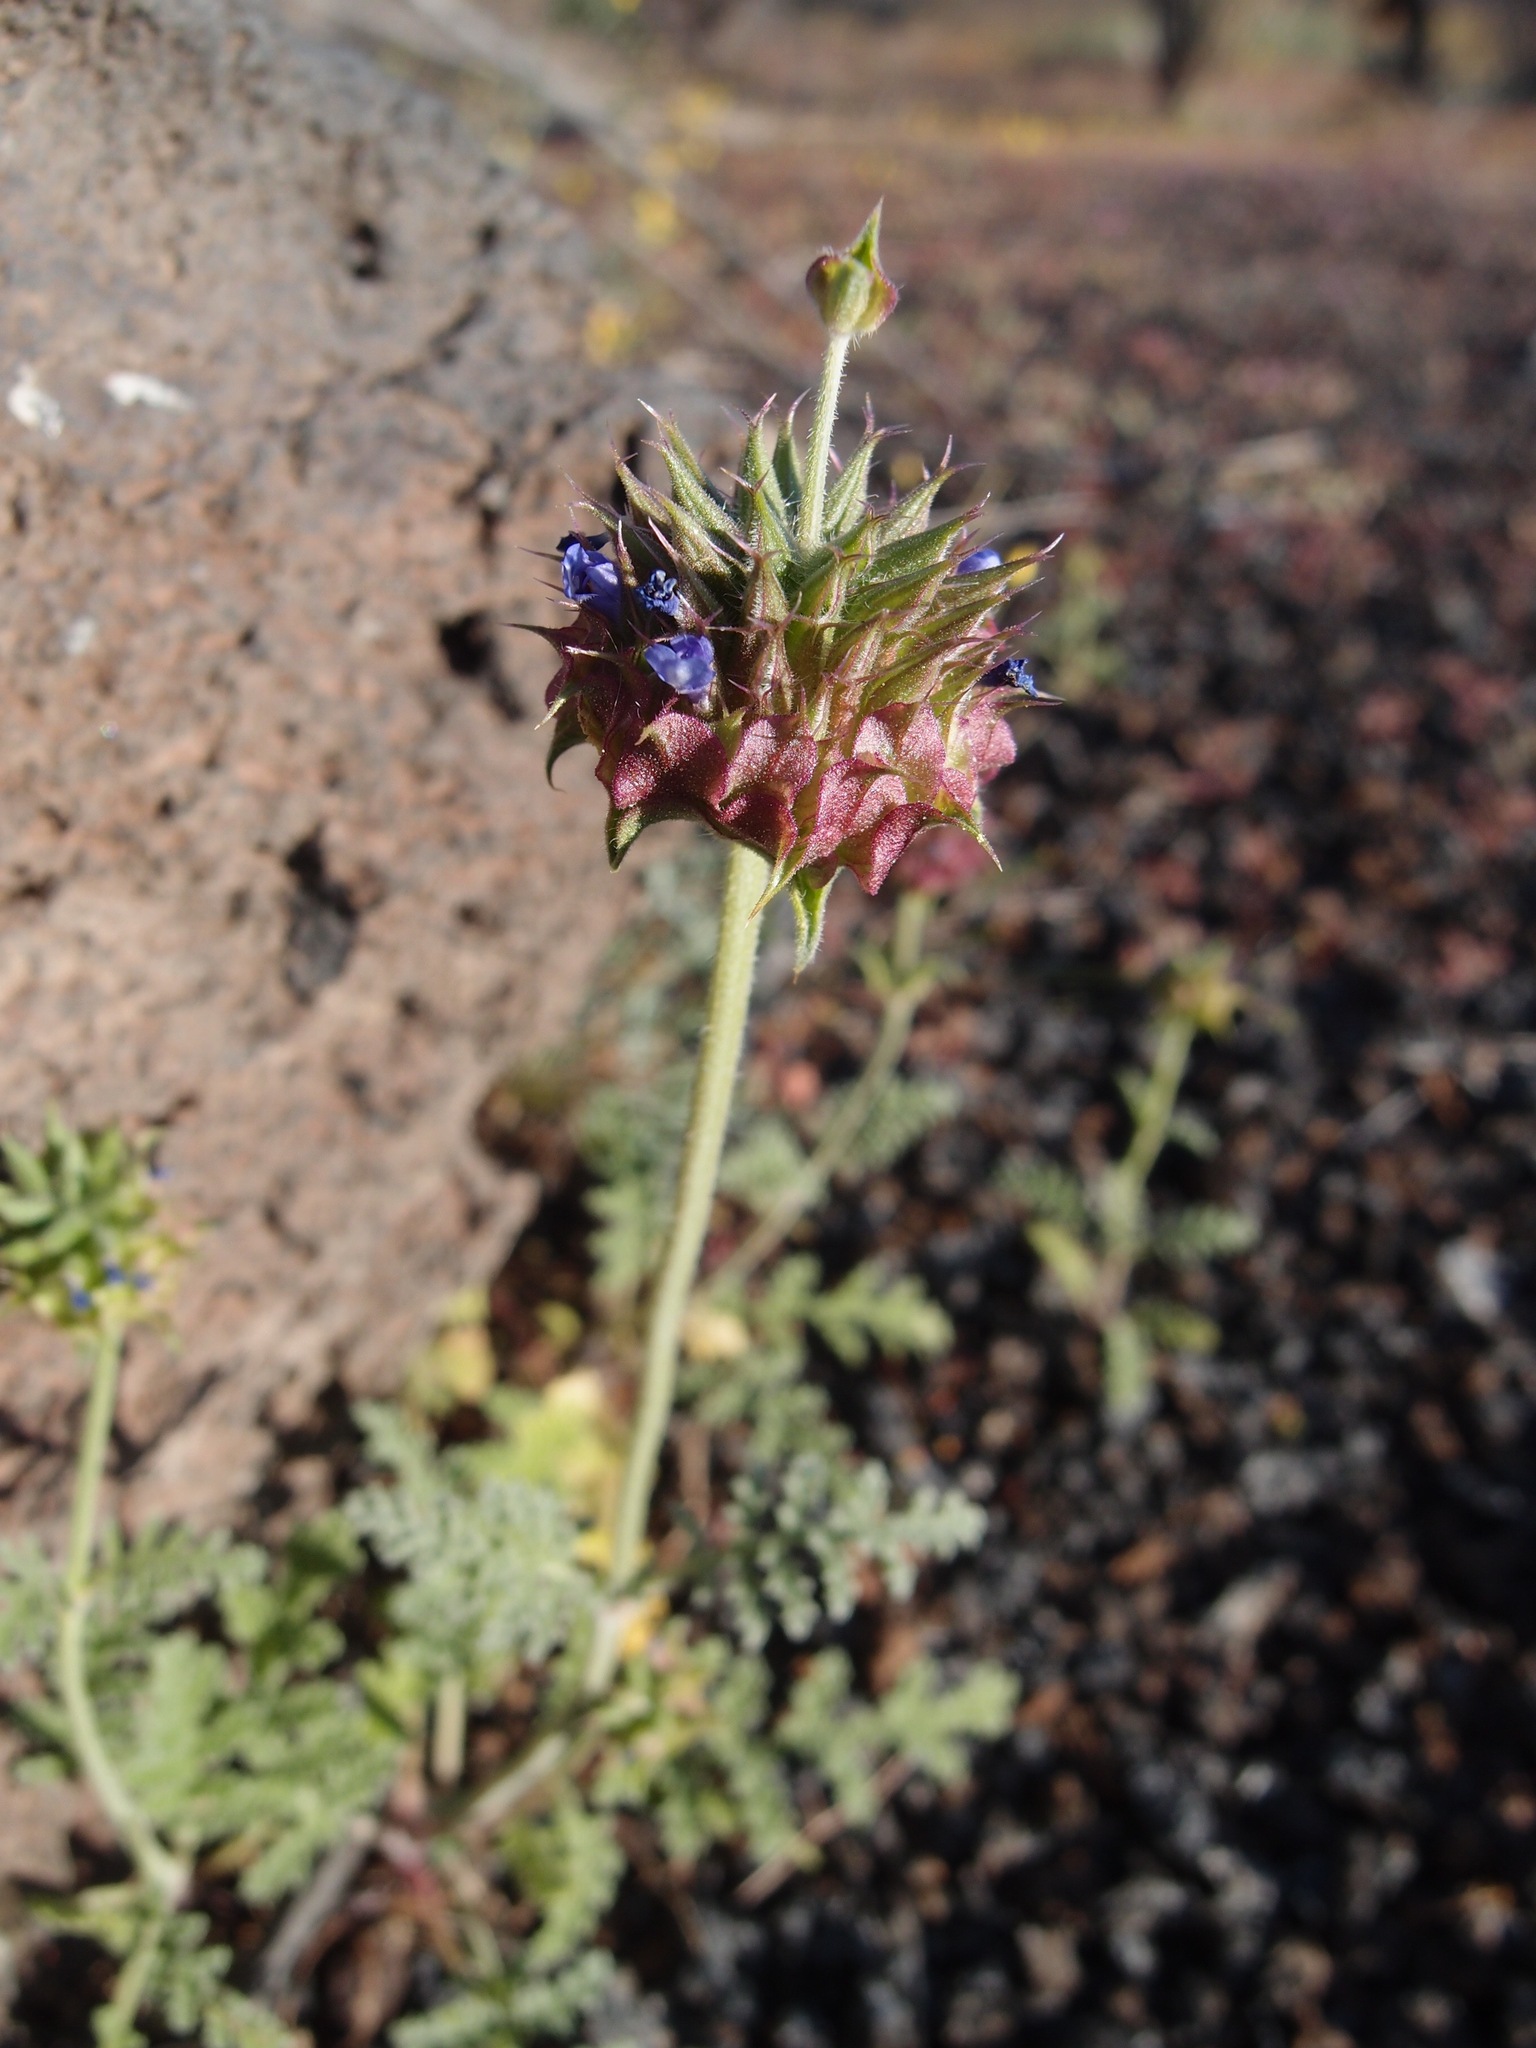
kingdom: Plantae
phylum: Tracheophyta
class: Magnoliopsida
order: Lamiales
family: Lamiaceae
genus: Salvia
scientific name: Salvia columbariae
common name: Chia
